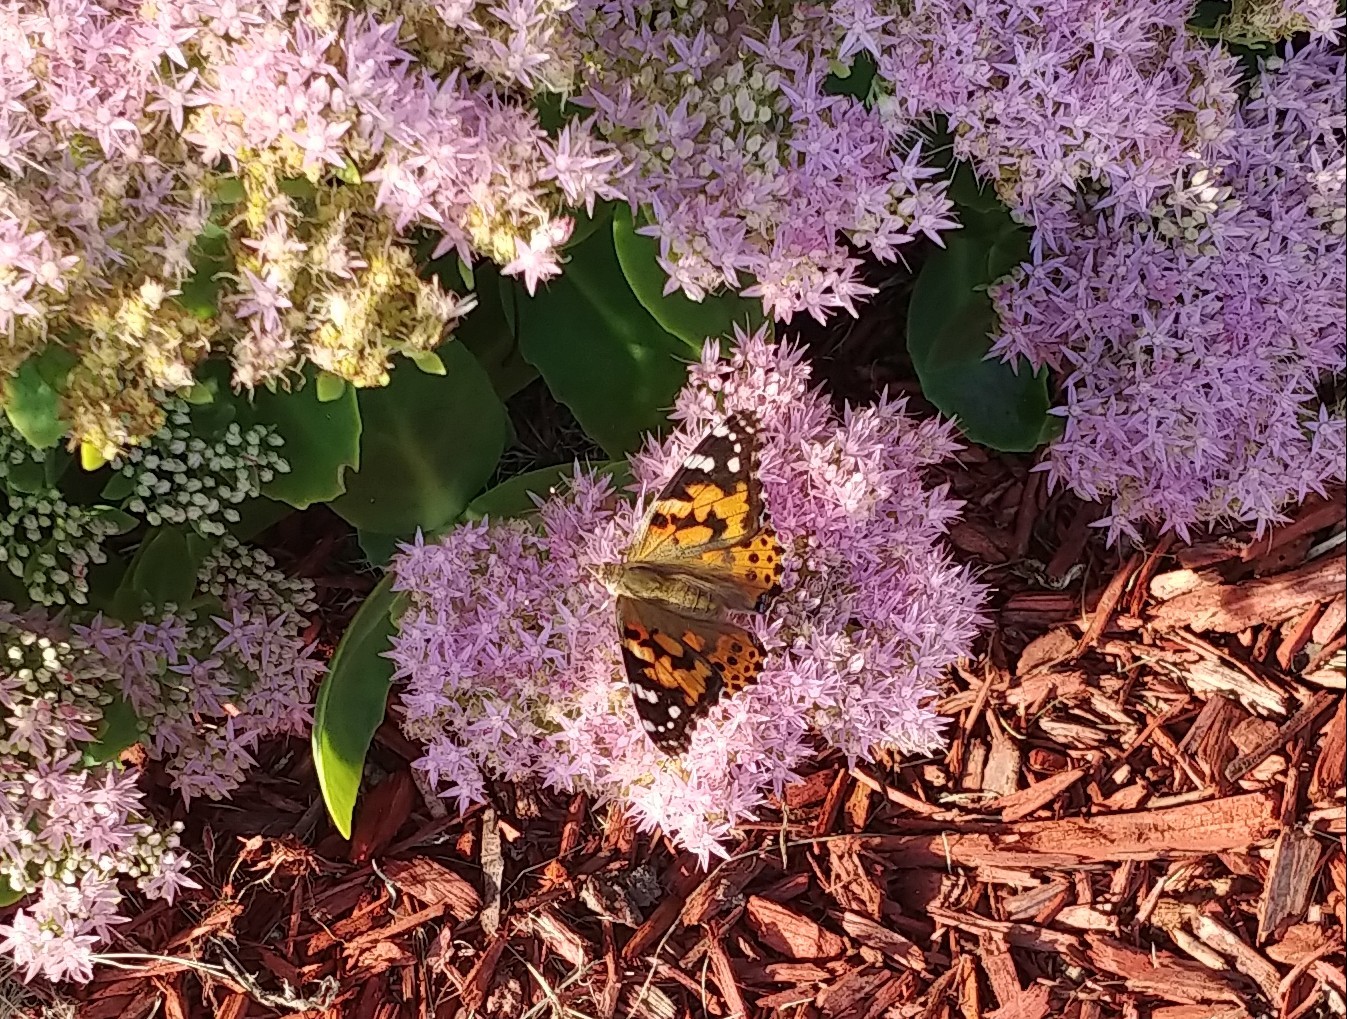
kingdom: Animalia
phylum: Arthropoda
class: Insecta
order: Lepidoptera
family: Nymphalidae
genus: Vanessa
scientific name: Vanessa cardui
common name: Painted lady
